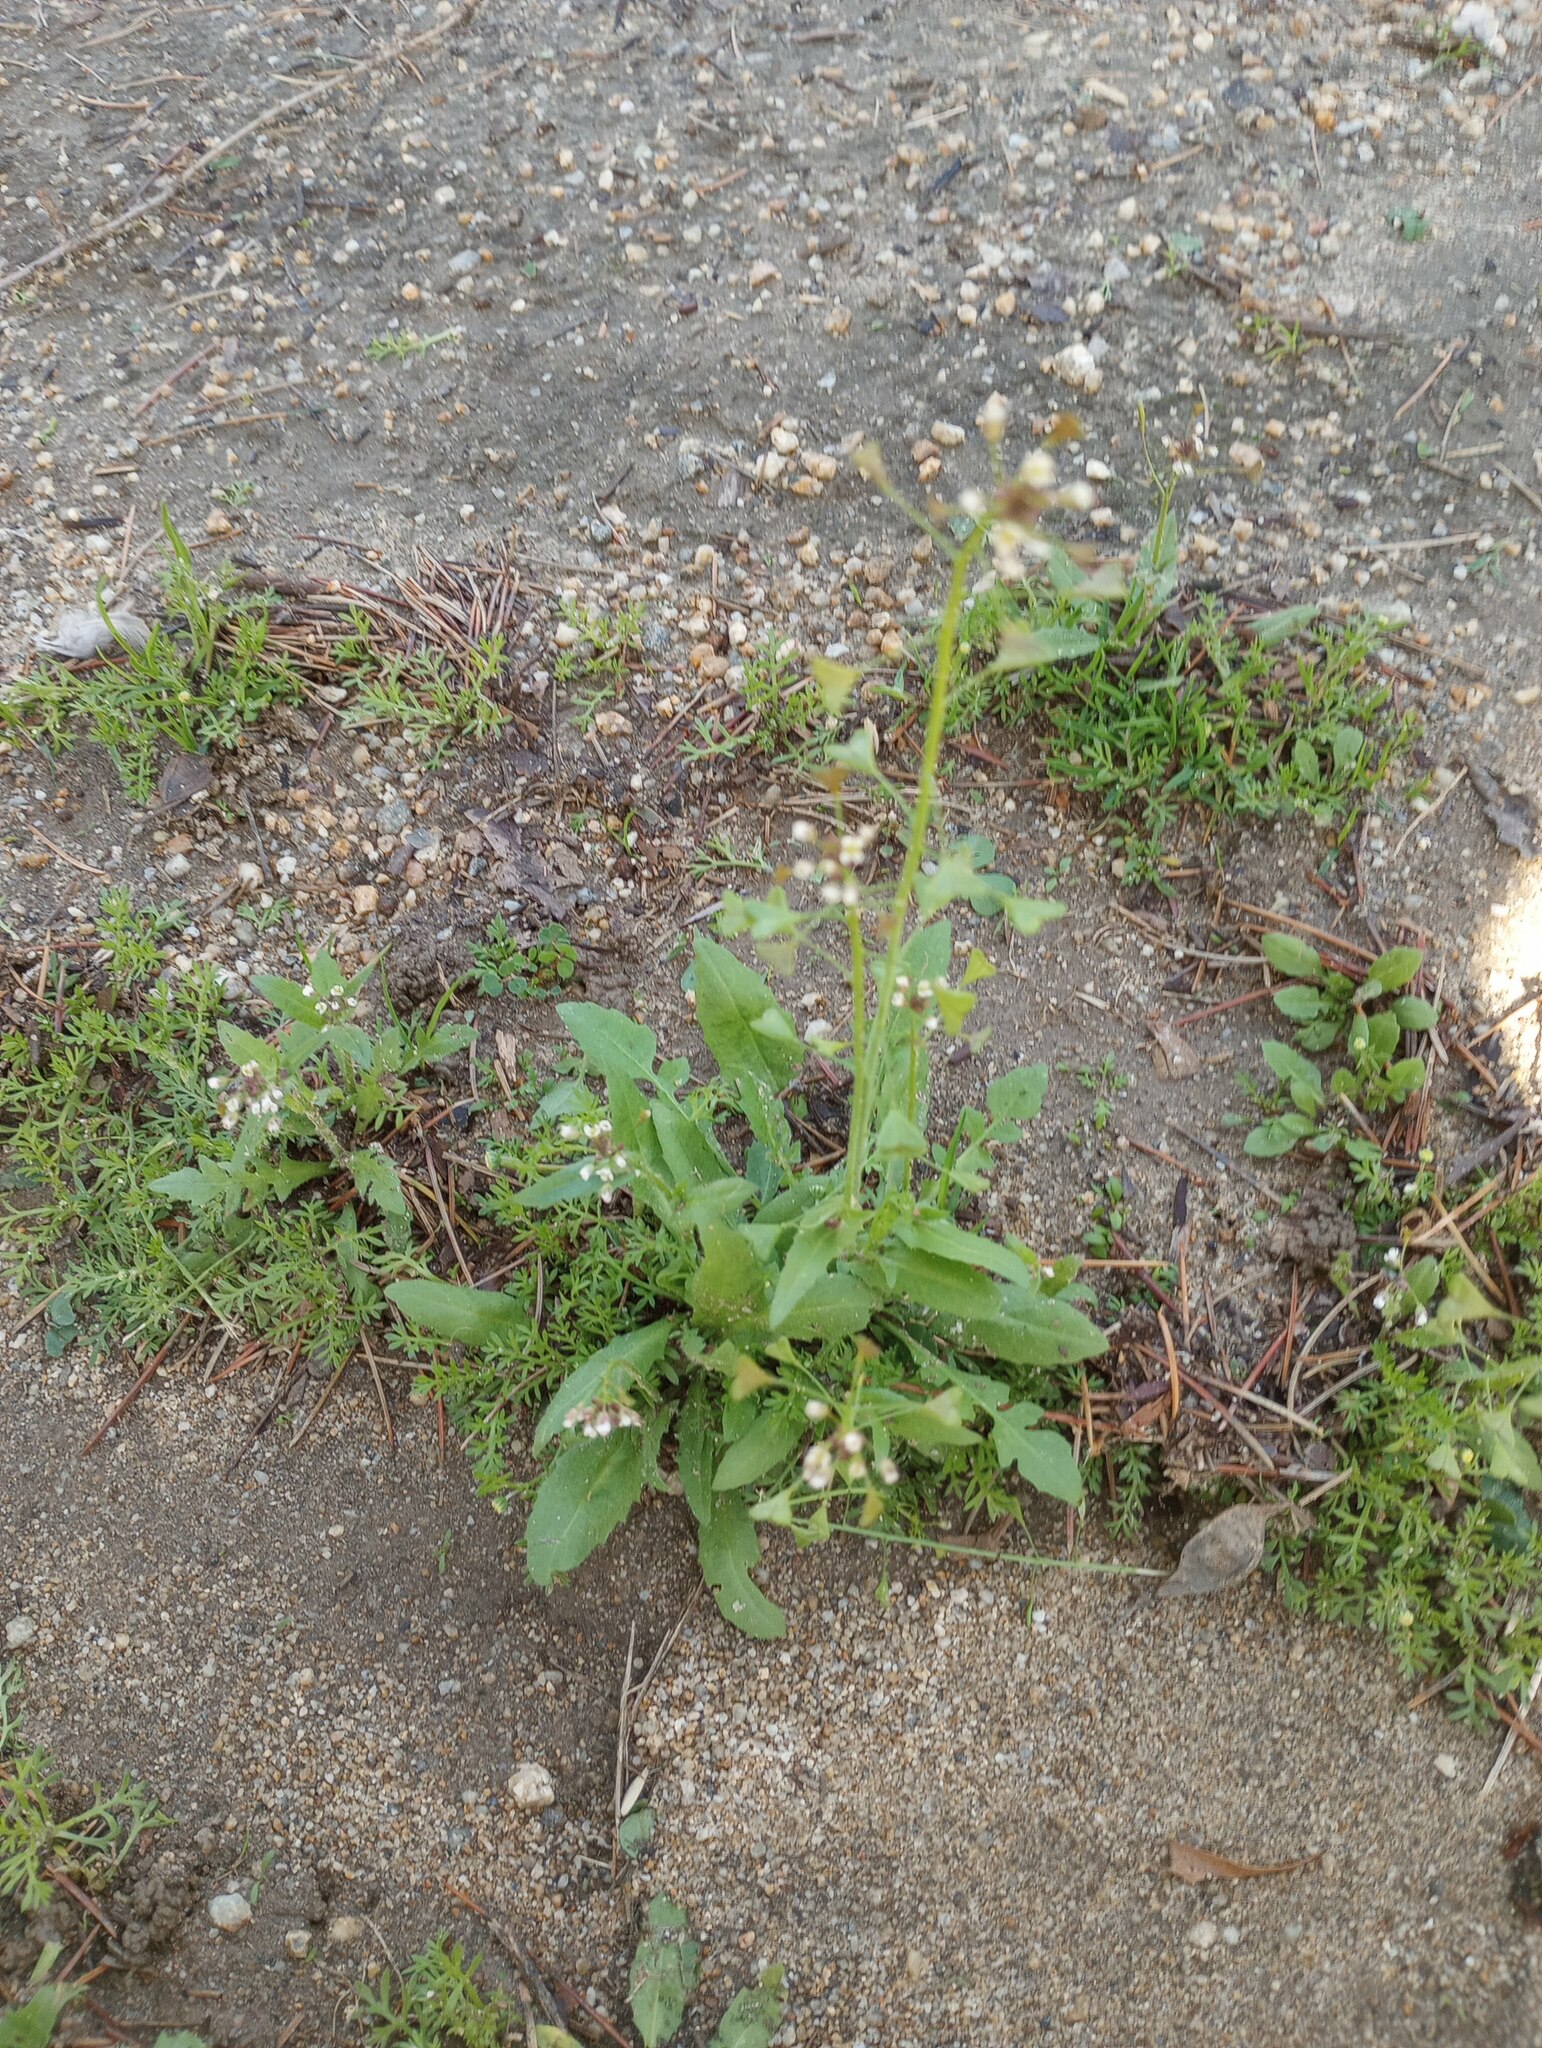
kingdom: Plantae
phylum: Tracheophyta
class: Magnoliopsida
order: Brassicales
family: Brassicaceae
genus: Capsella
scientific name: Capsella bursa-pastoris
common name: Shepherd's purse
